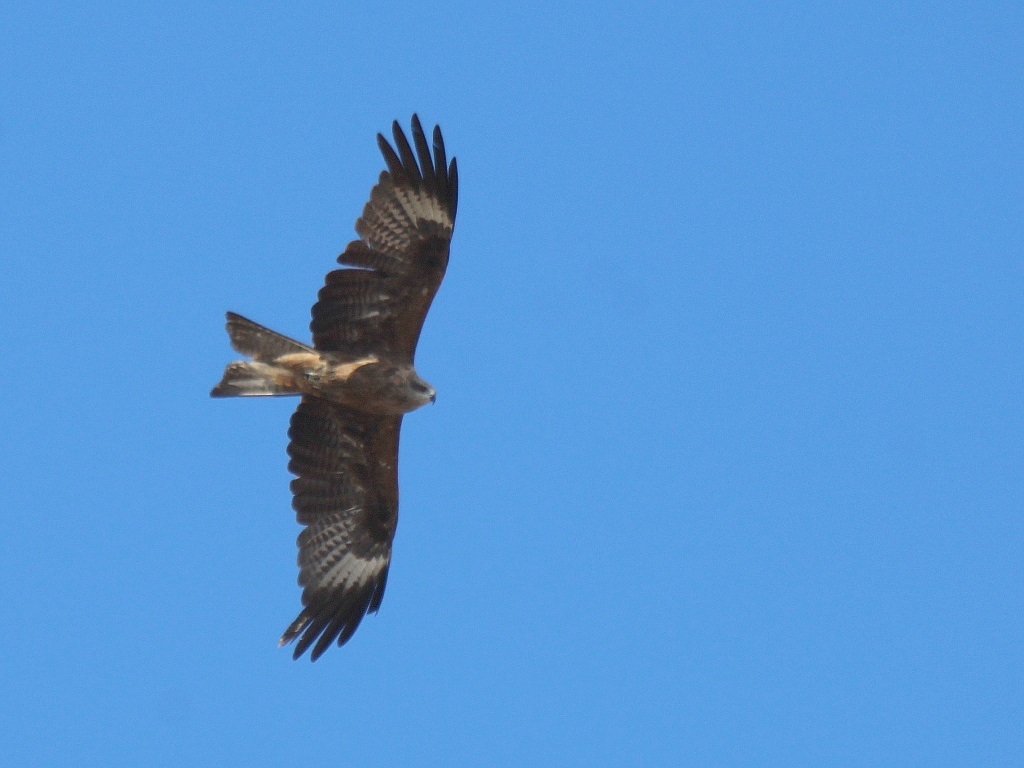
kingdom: Animalia
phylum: Chordata
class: Aves
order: Accipitriformes
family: Accipitridae
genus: Milvus
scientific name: Milvus migrans
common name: Black kite
